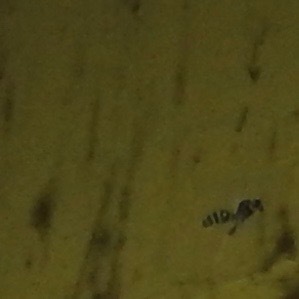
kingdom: Animalia
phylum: Arthropoda
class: Insecta
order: Hymenoptera
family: Eumenidae
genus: Polistes
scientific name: Polistes dominula
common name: Paper wasp
